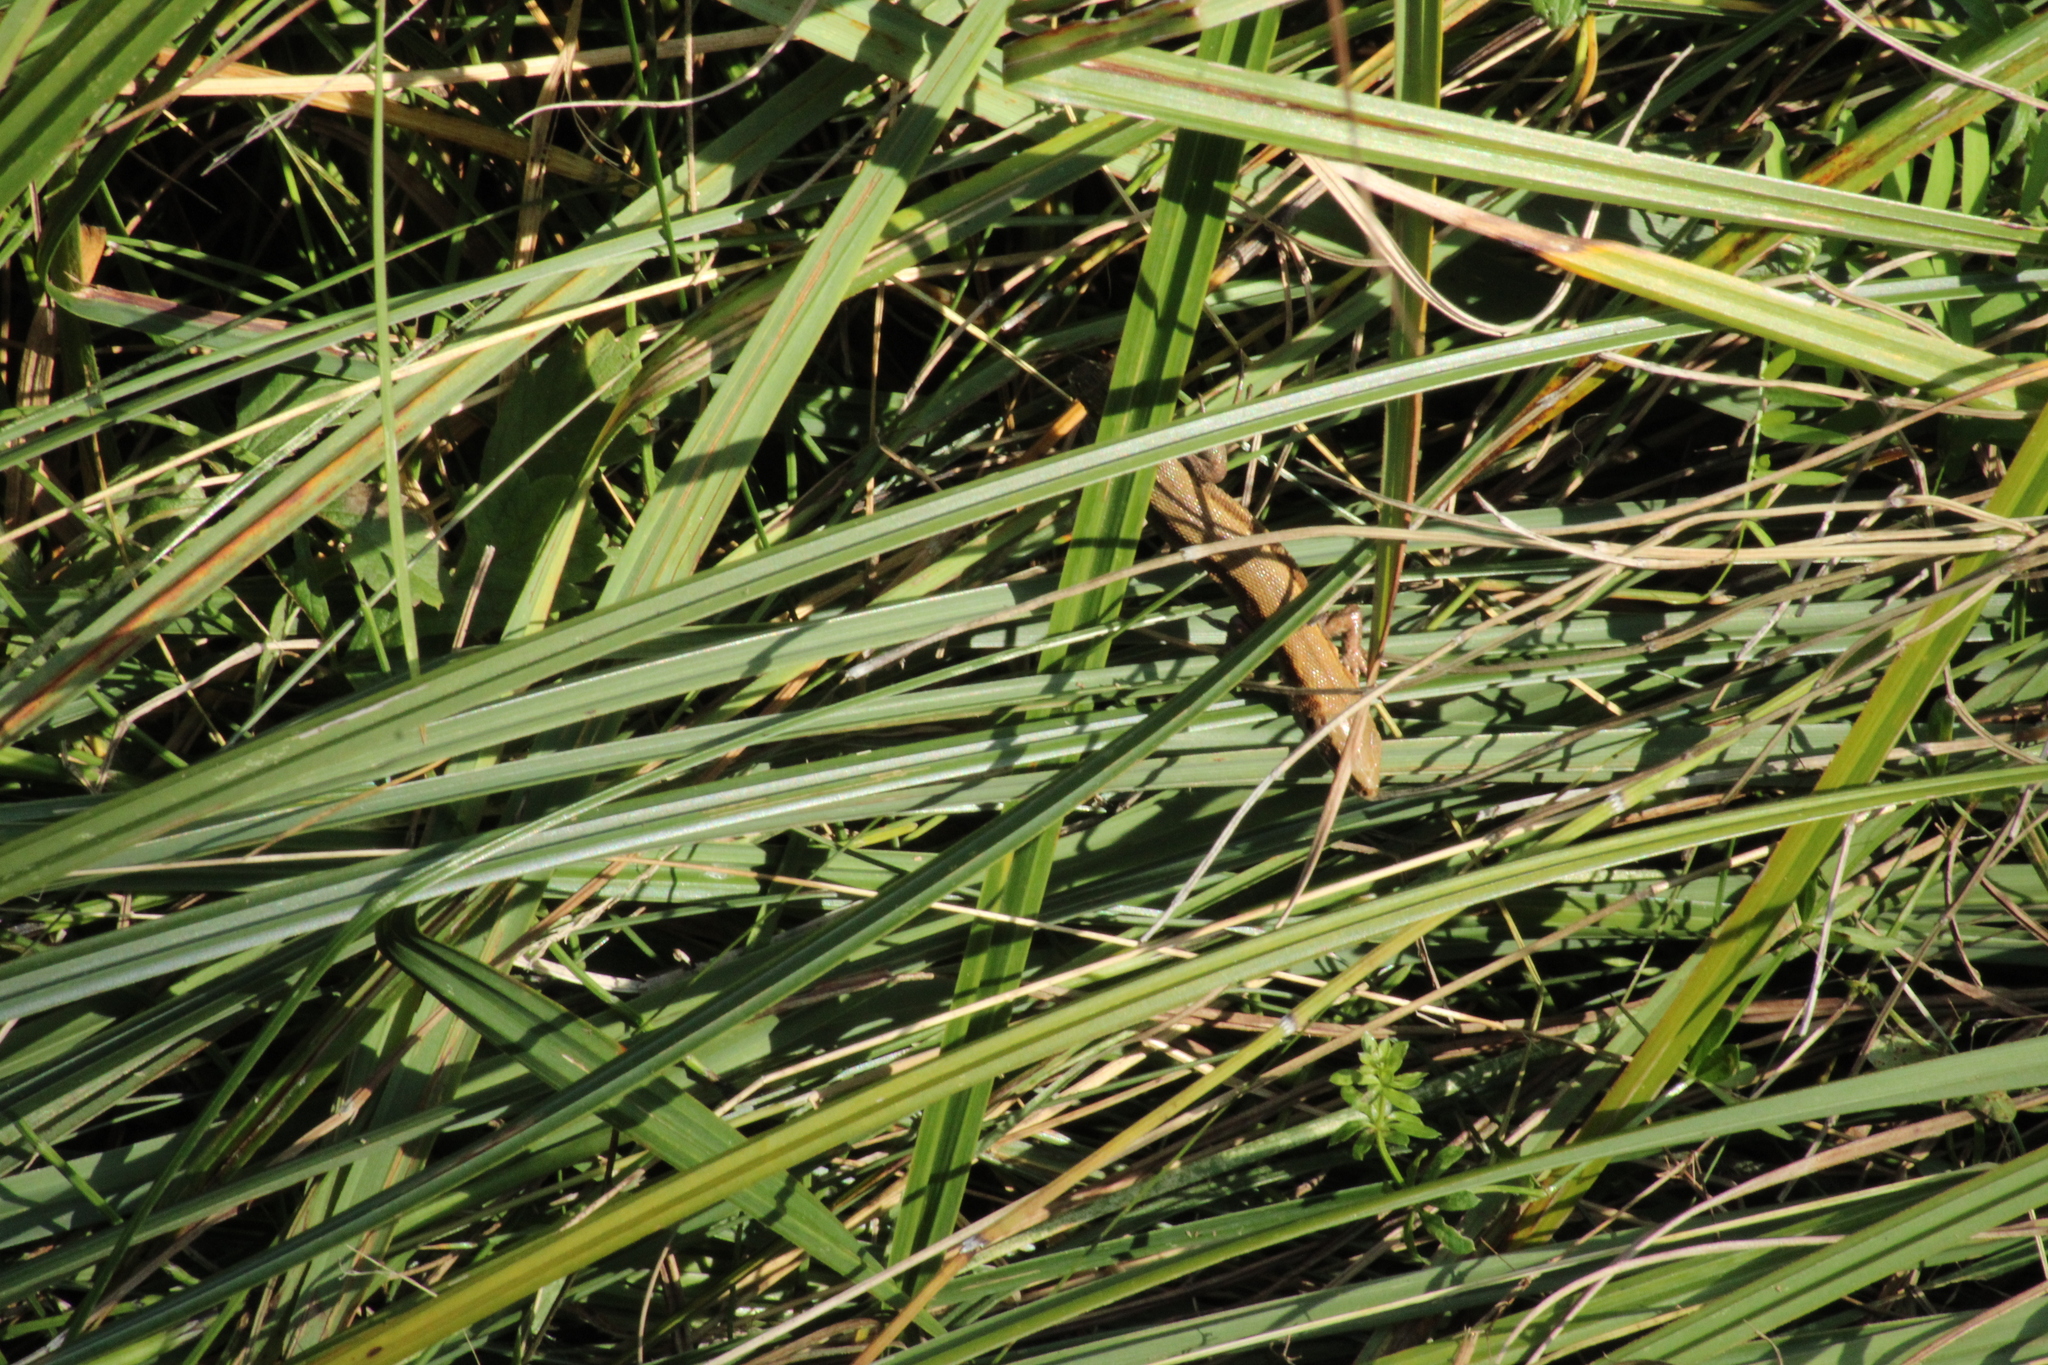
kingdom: Animalia
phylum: Chordata
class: Squamata
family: Lacertidae
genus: Zootoca
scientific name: Zootoca vivipara
